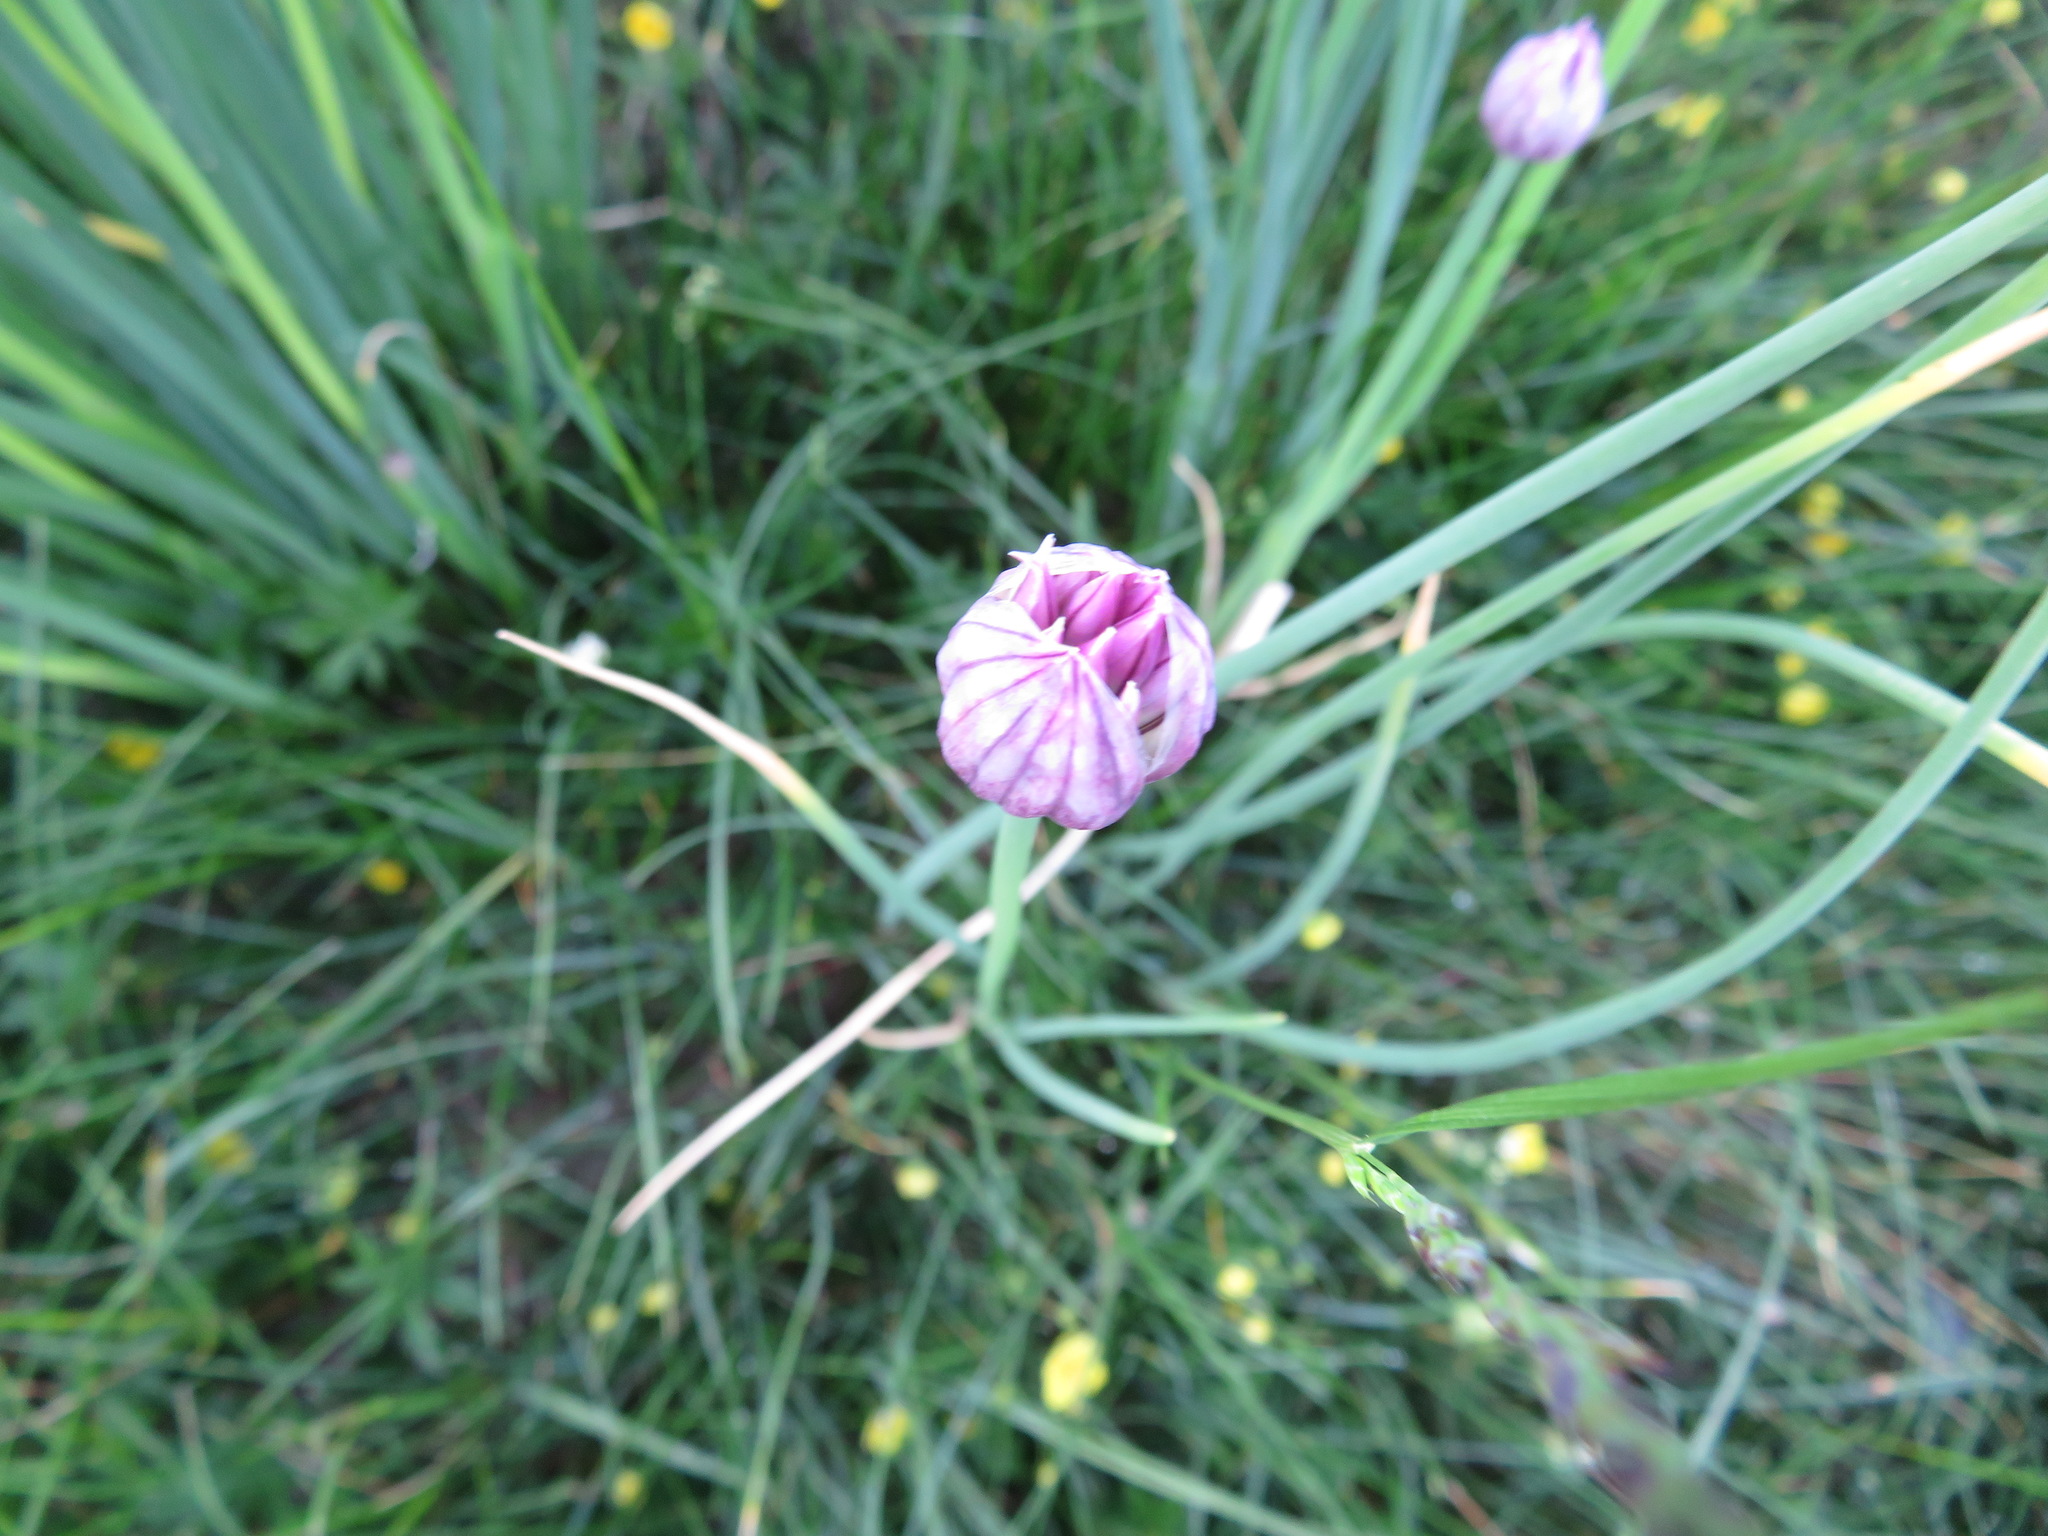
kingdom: Plantae
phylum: Tracheophyta
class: Liliopsida
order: Asparagales
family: Amaryllidaceae
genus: Allium
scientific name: Allium schoenoprasum
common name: Chives
